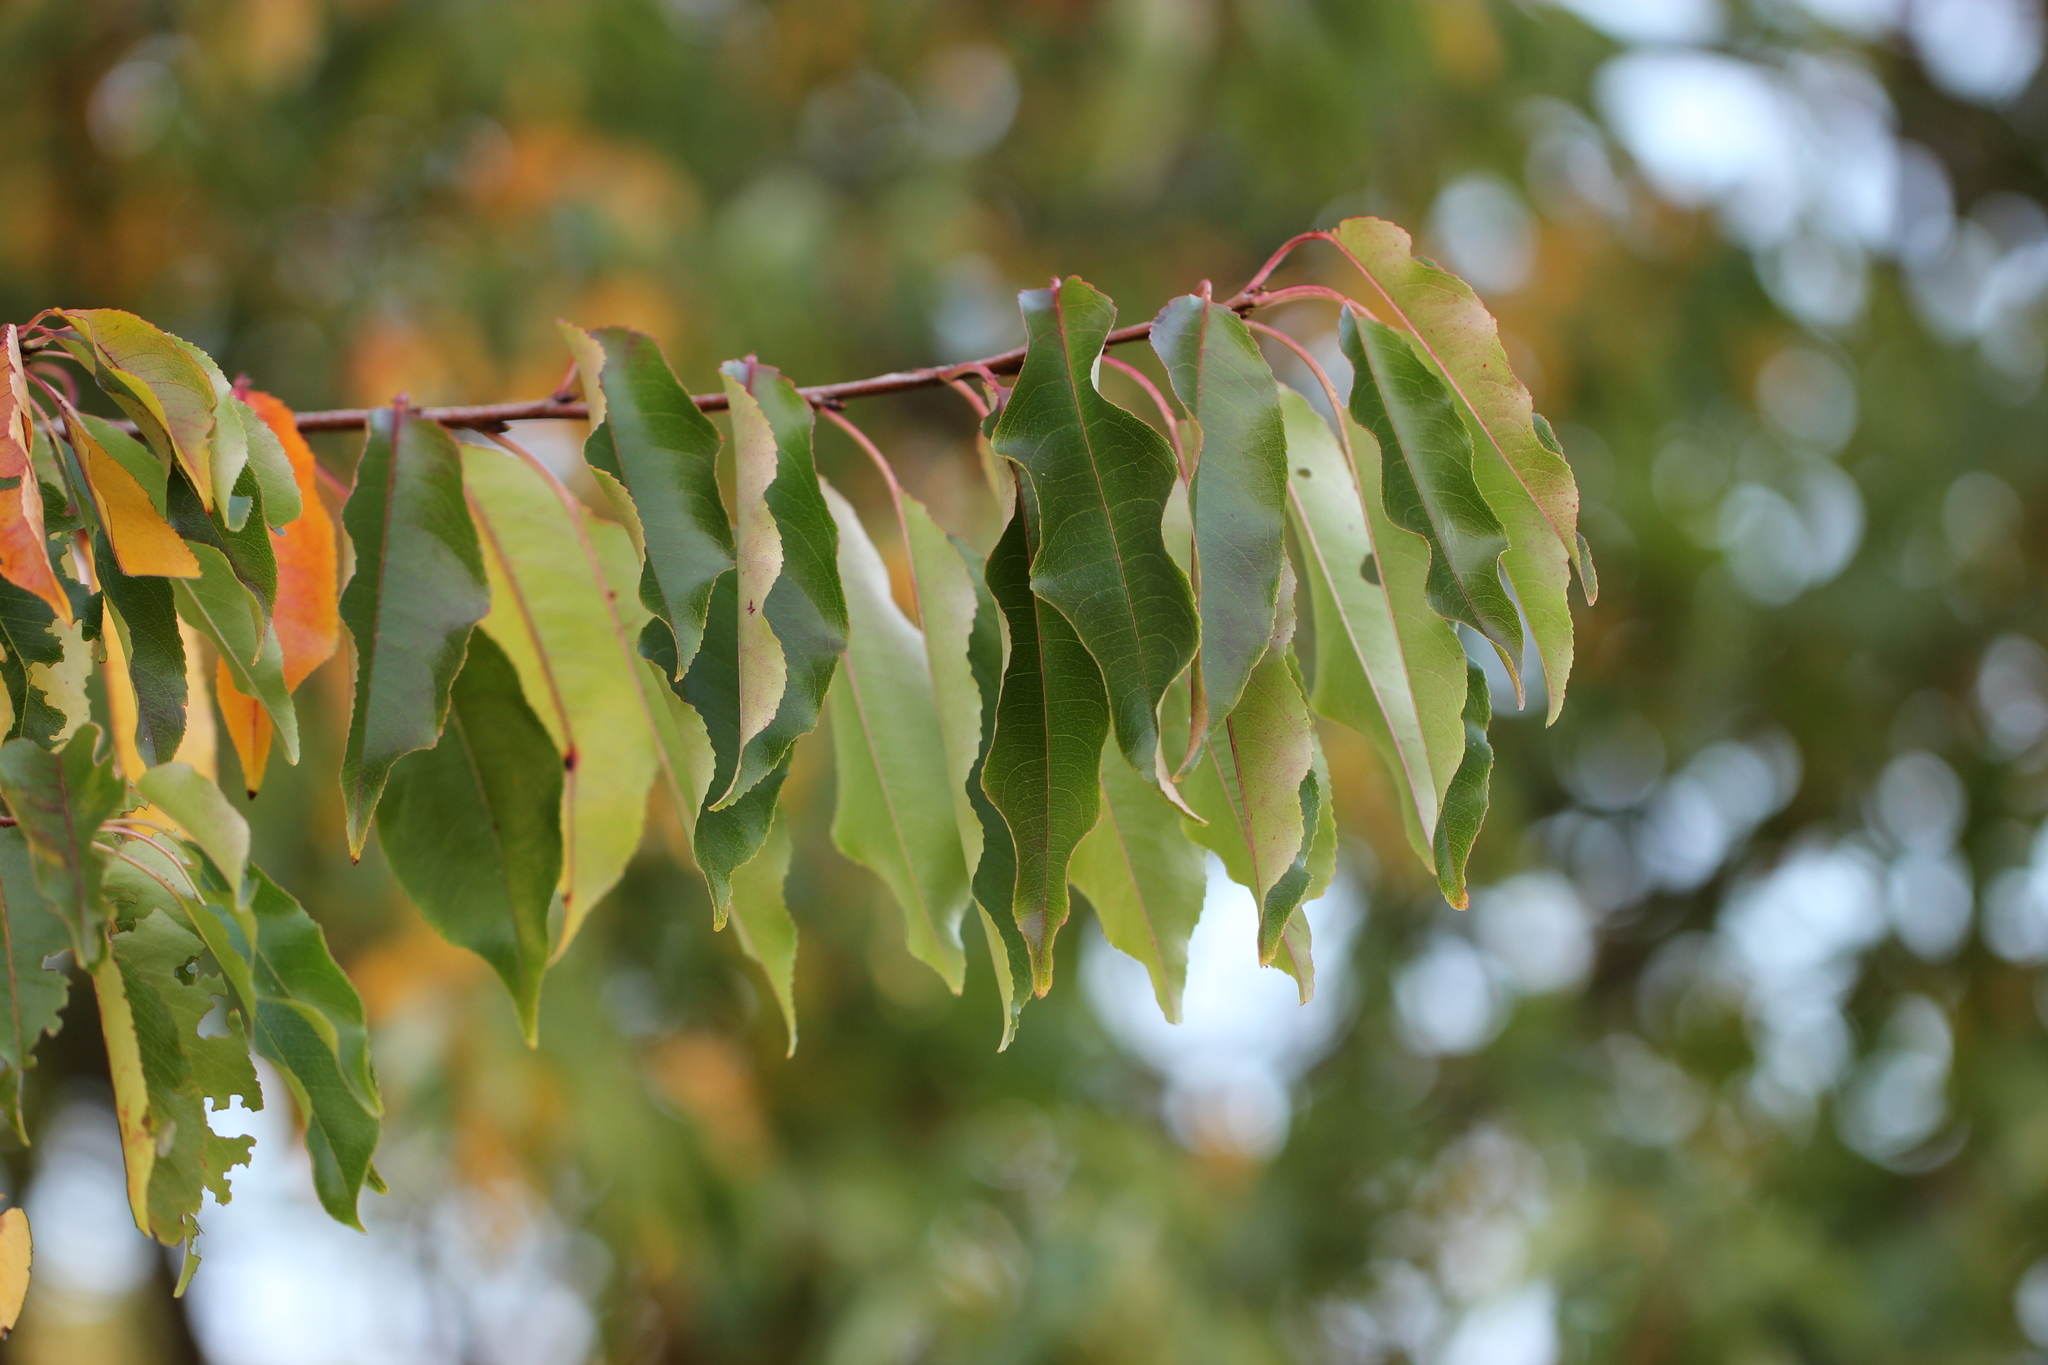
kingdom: Plantae
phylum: Tracheophyta
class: Magnoliopsida
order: Rosales
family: Rosaceae
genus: Prunus
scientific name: Prunus serotina
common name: Black cherry
